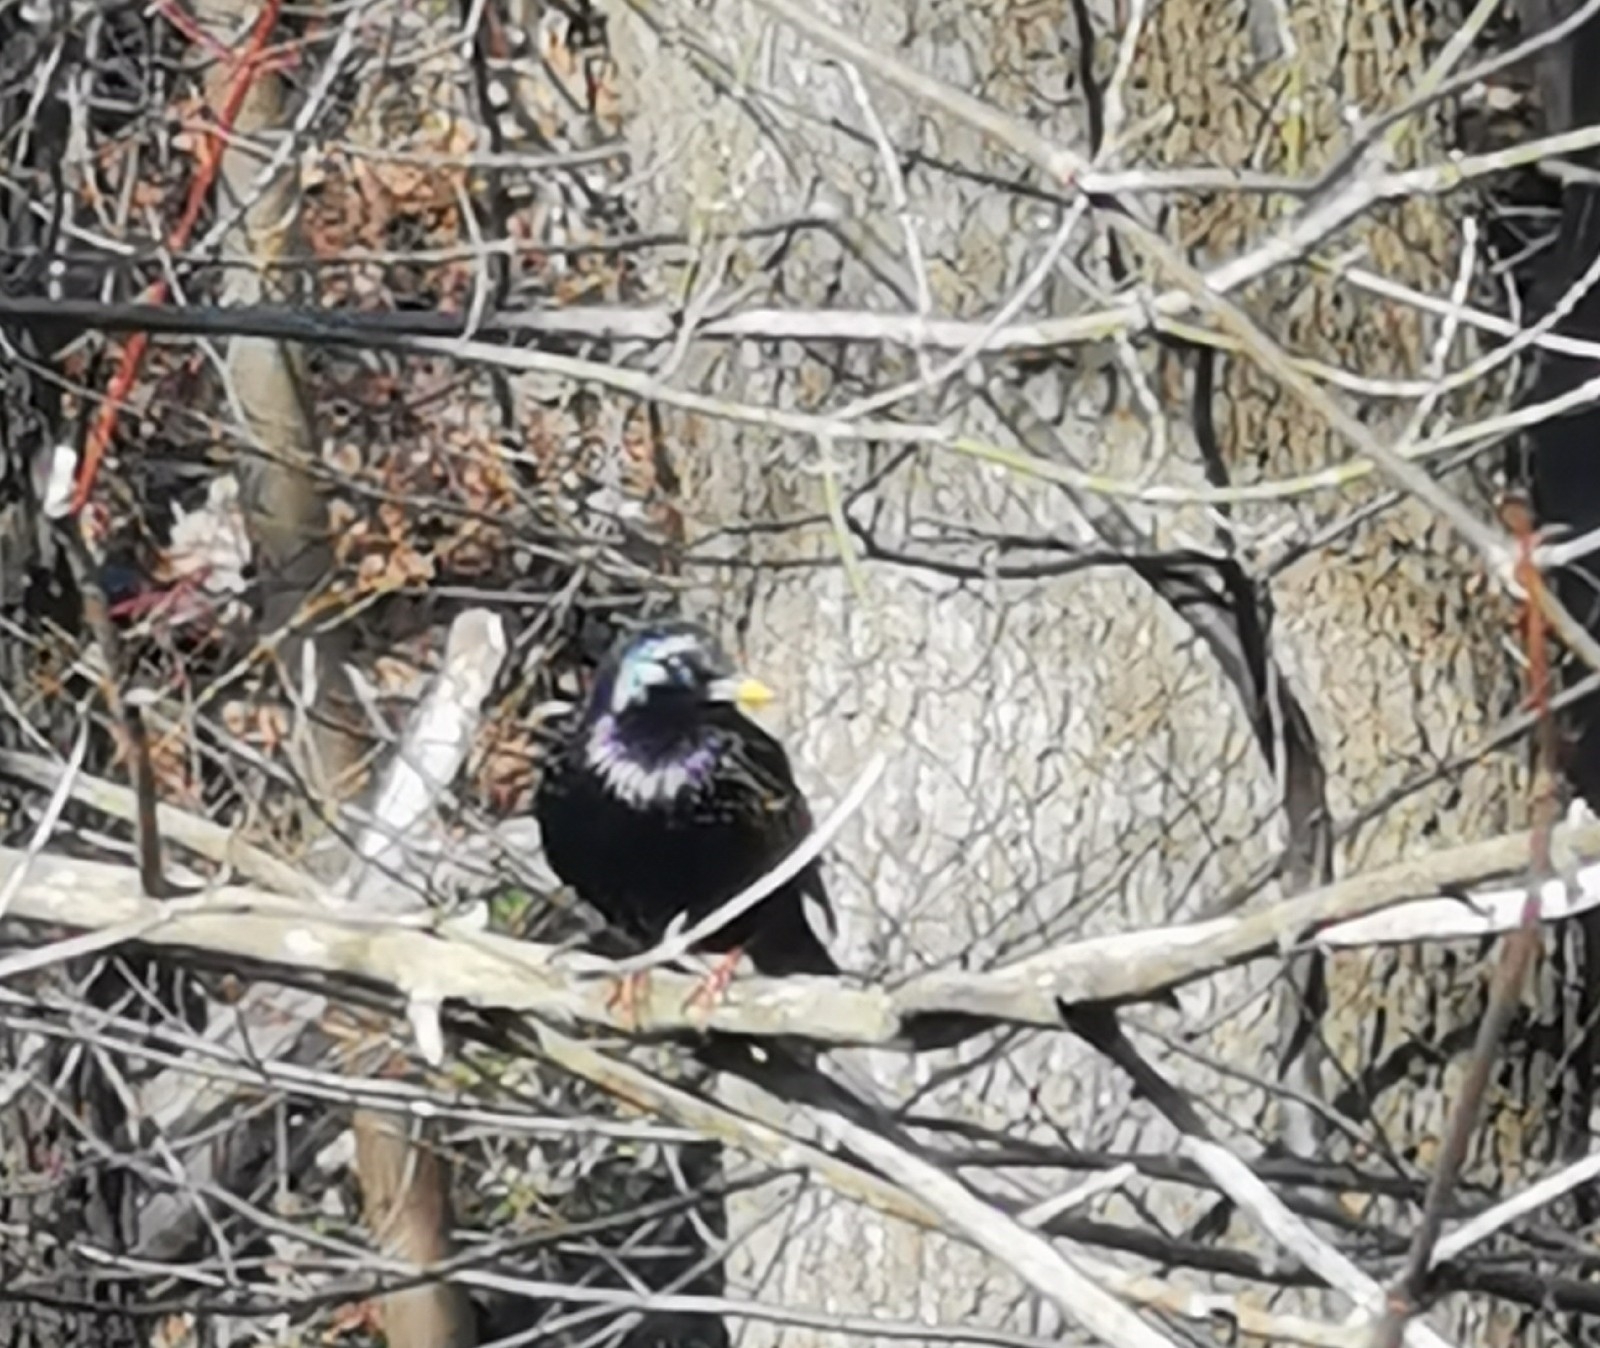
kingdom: Animalia
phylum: Chordata
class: Aves
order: Passeriformes
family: Sturnidae
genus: Sturnus
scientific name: Sturnus vulgaris
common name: Common starling
